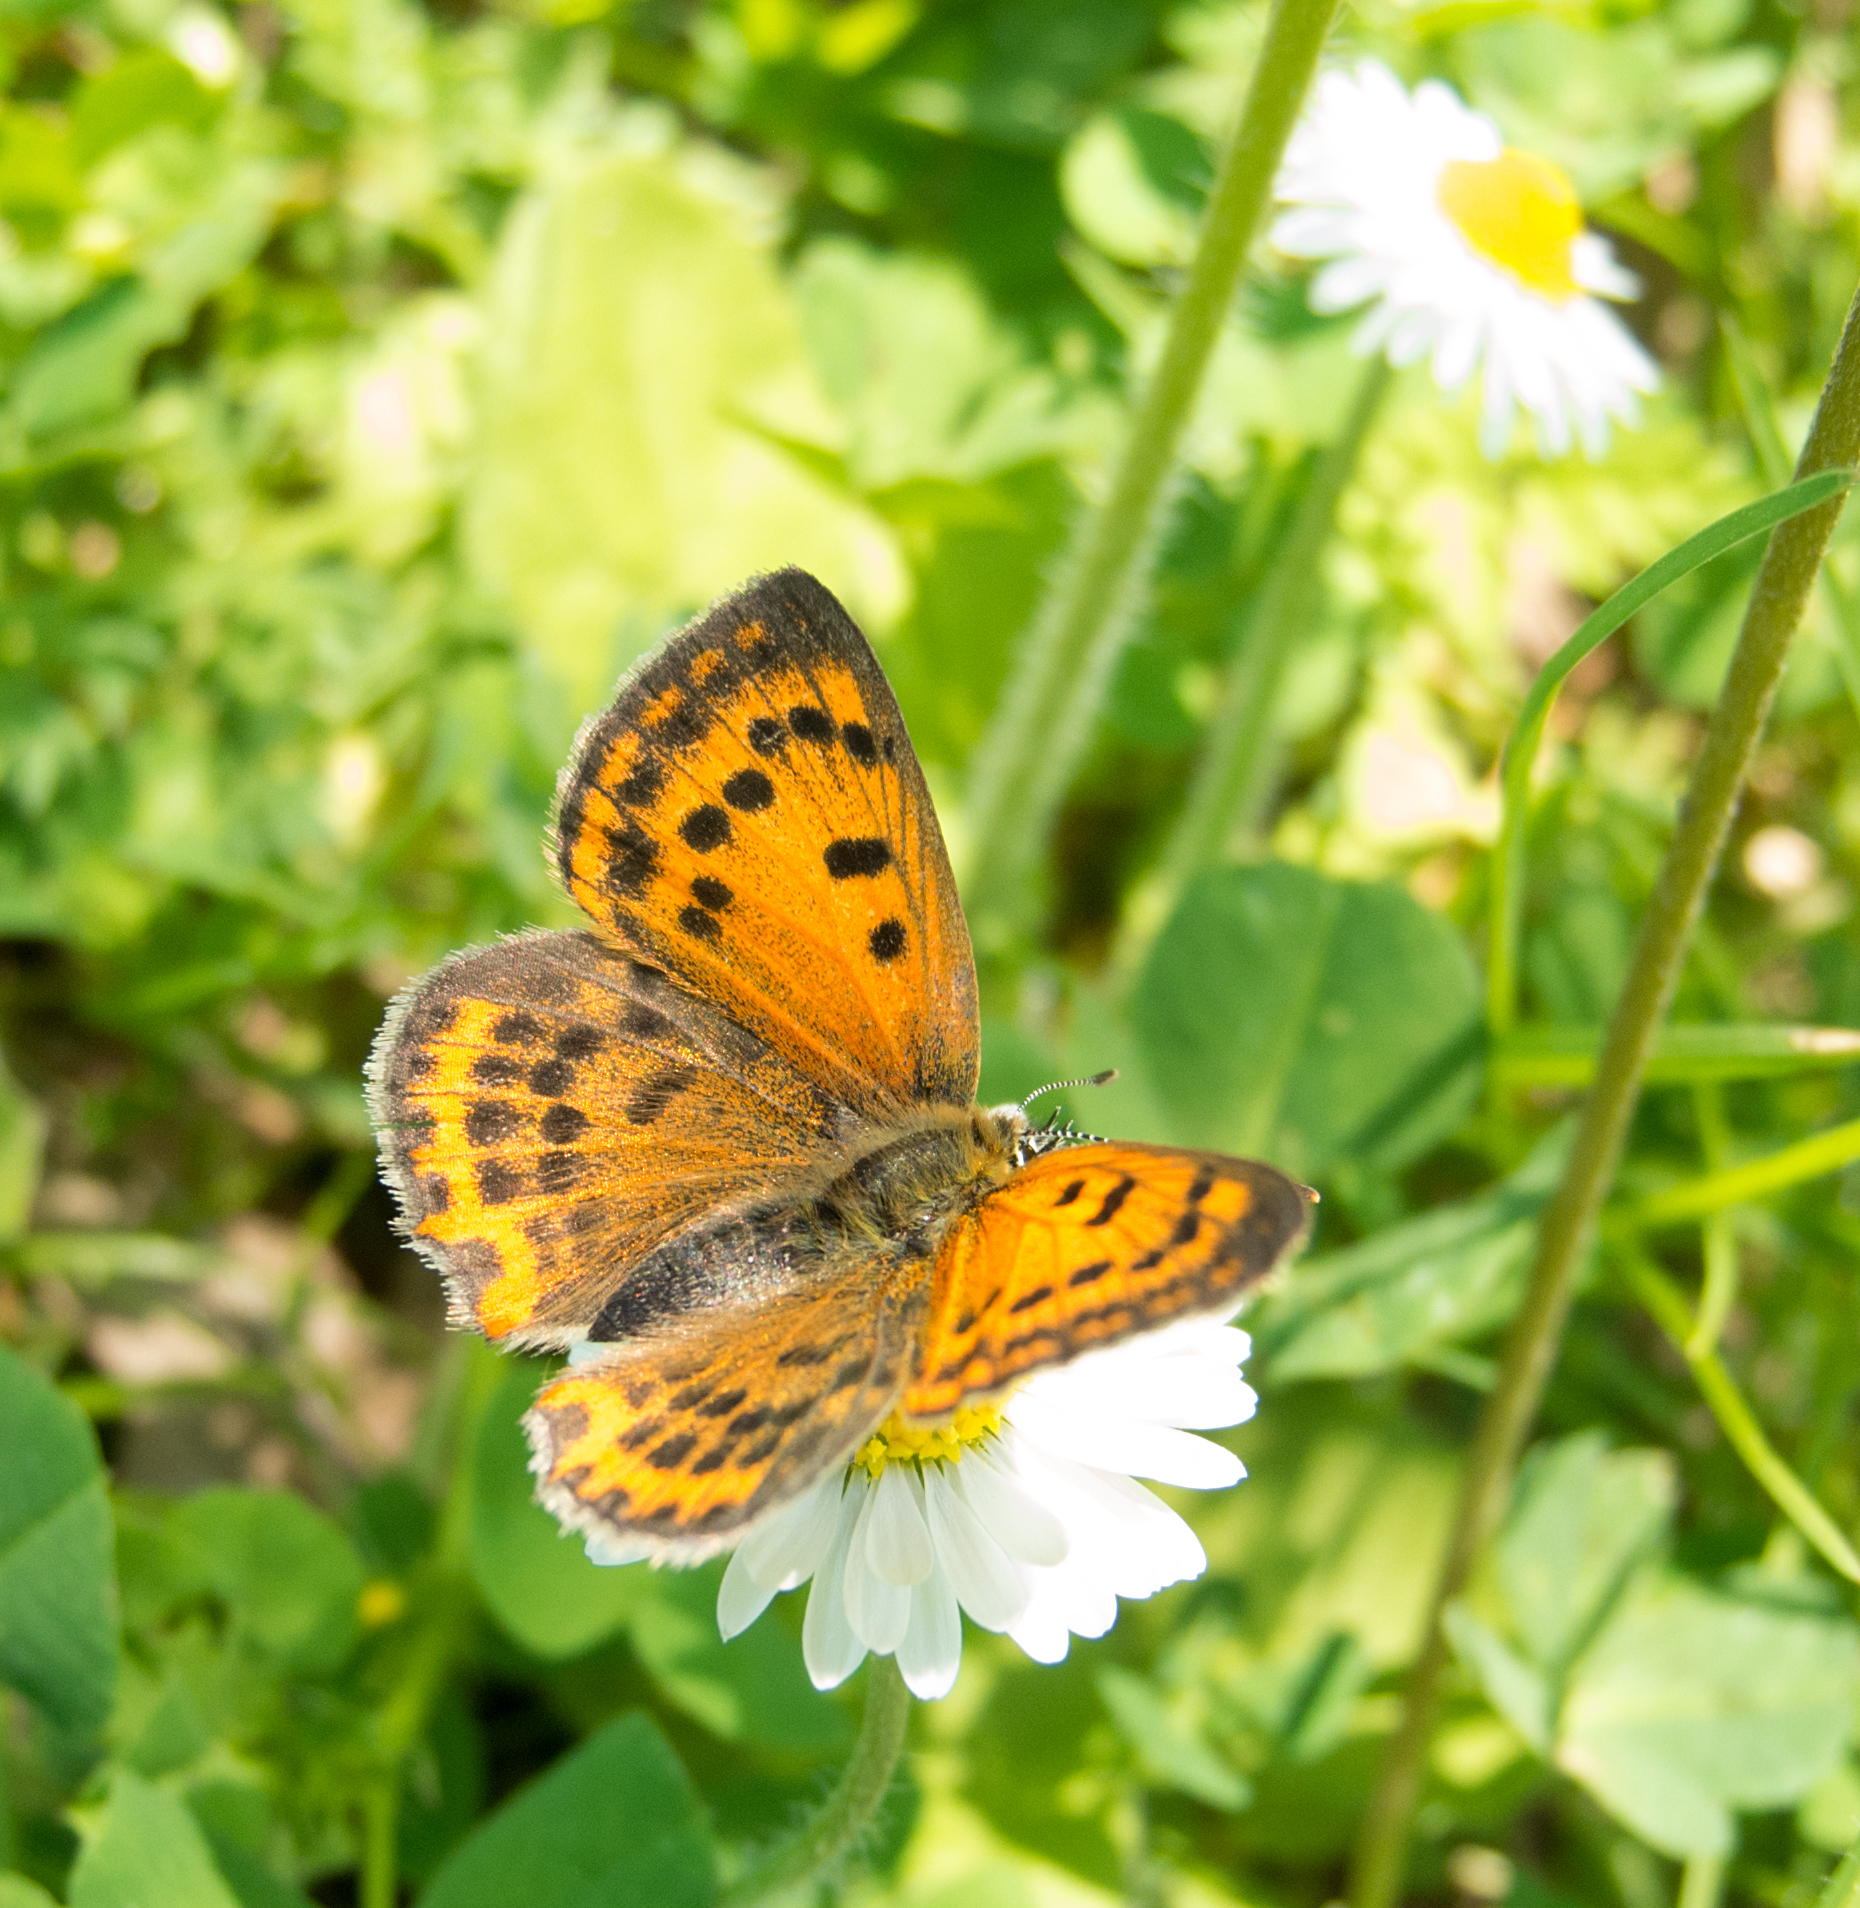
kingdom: Animalia
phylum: Arthropoda
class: Insecta
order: Lepidoptera
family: Lycaenidae
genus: Polyommatus
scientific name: Polyommatus ottomanus
